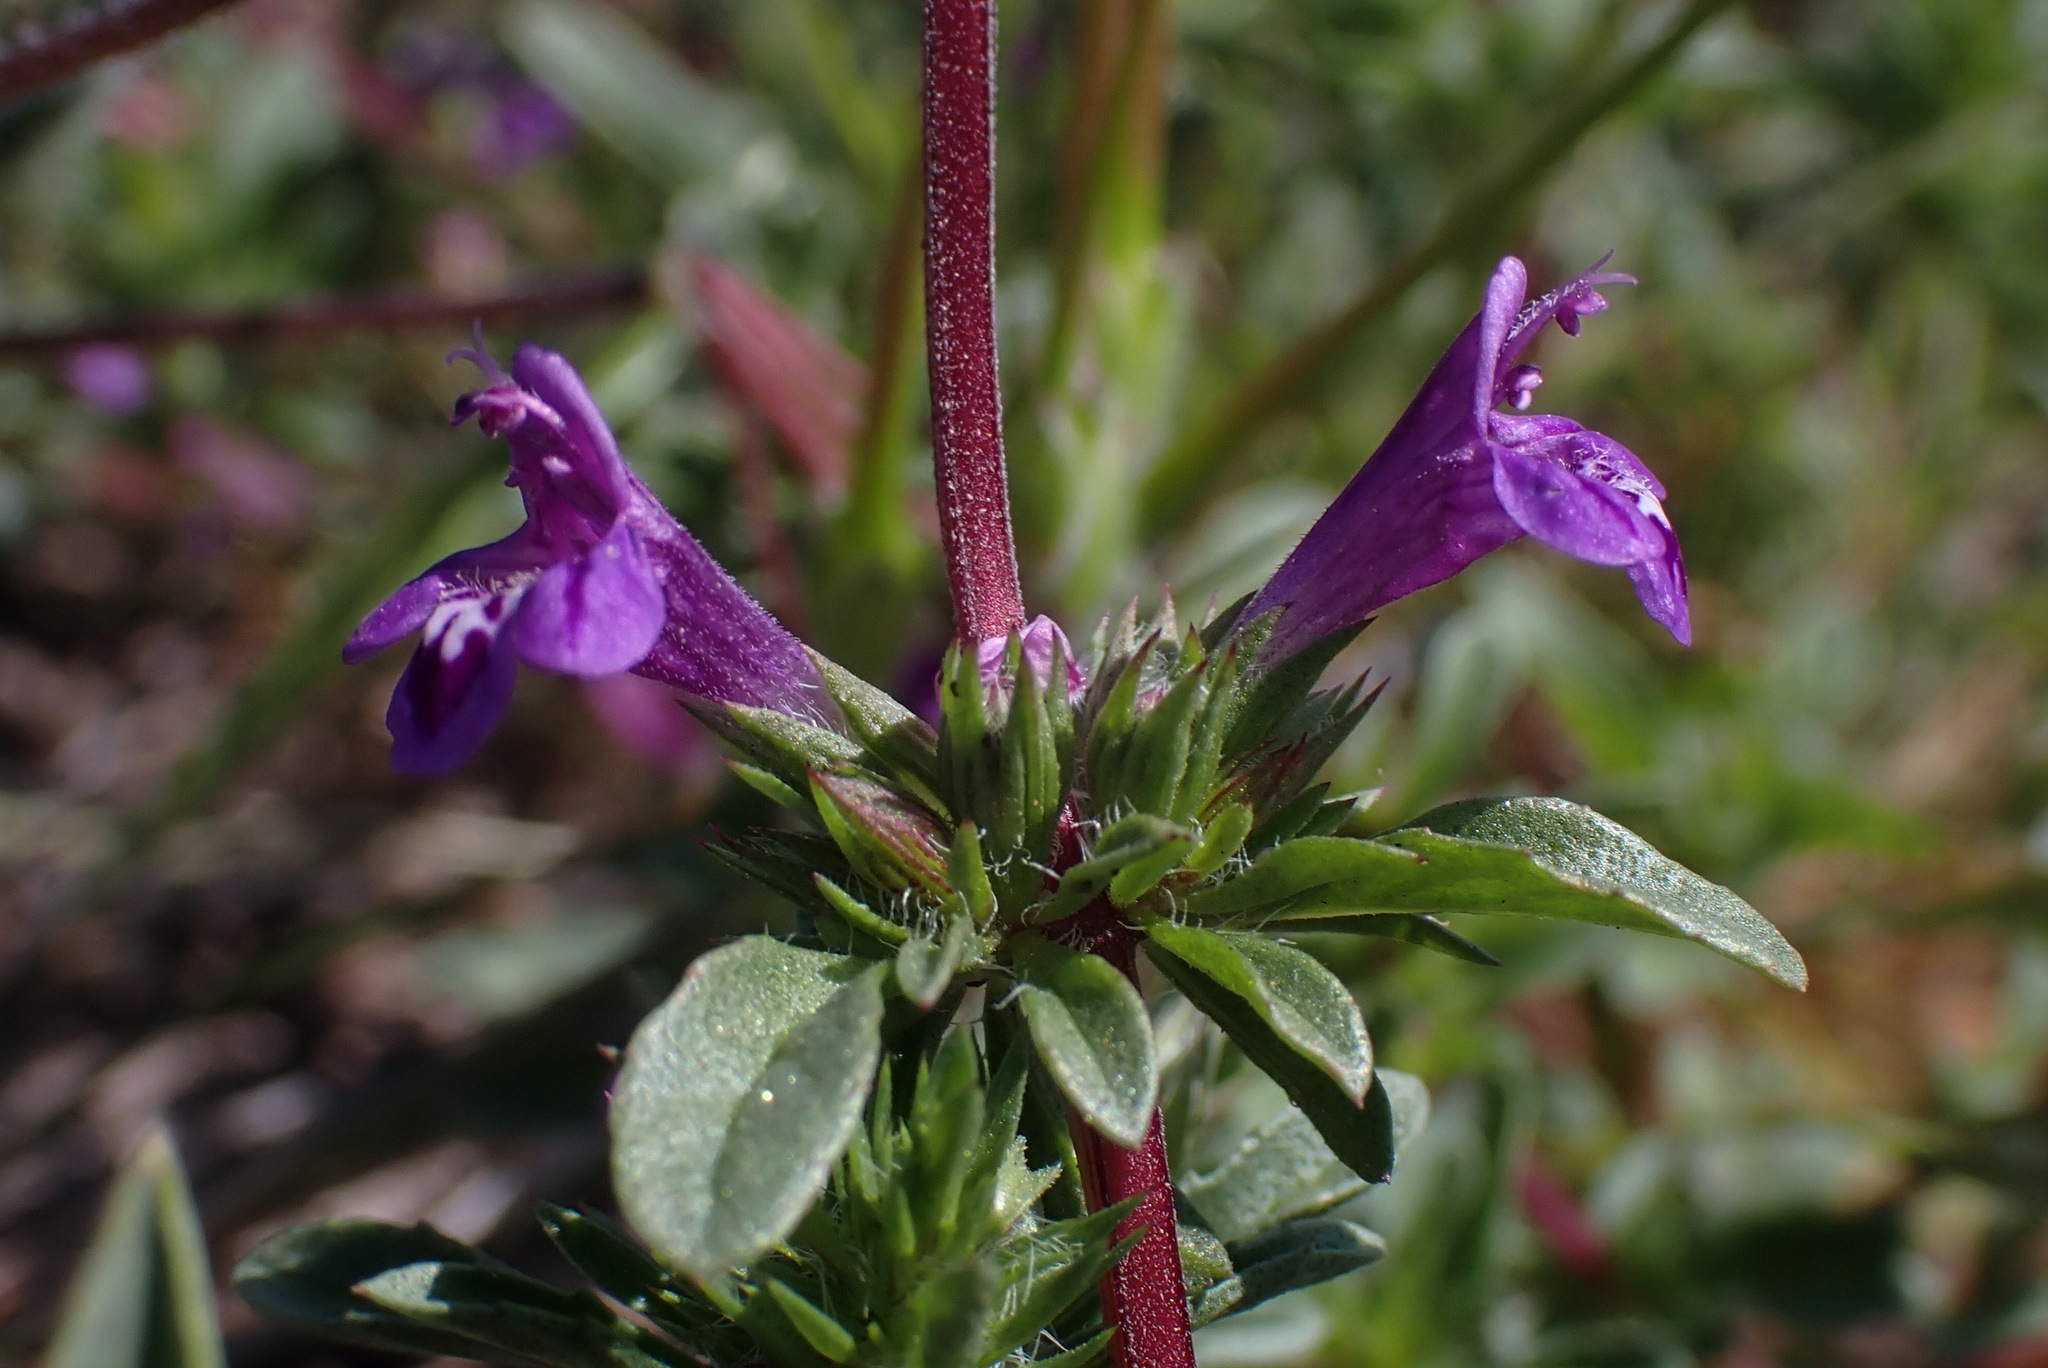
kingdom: Plantae
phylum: Tracheophyta
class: Magnoliopsida
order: Lamiales
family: Lamiaceae
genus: Pogogyne
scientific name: Pogogyne nudiuscula
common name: Otay mesa-mint
